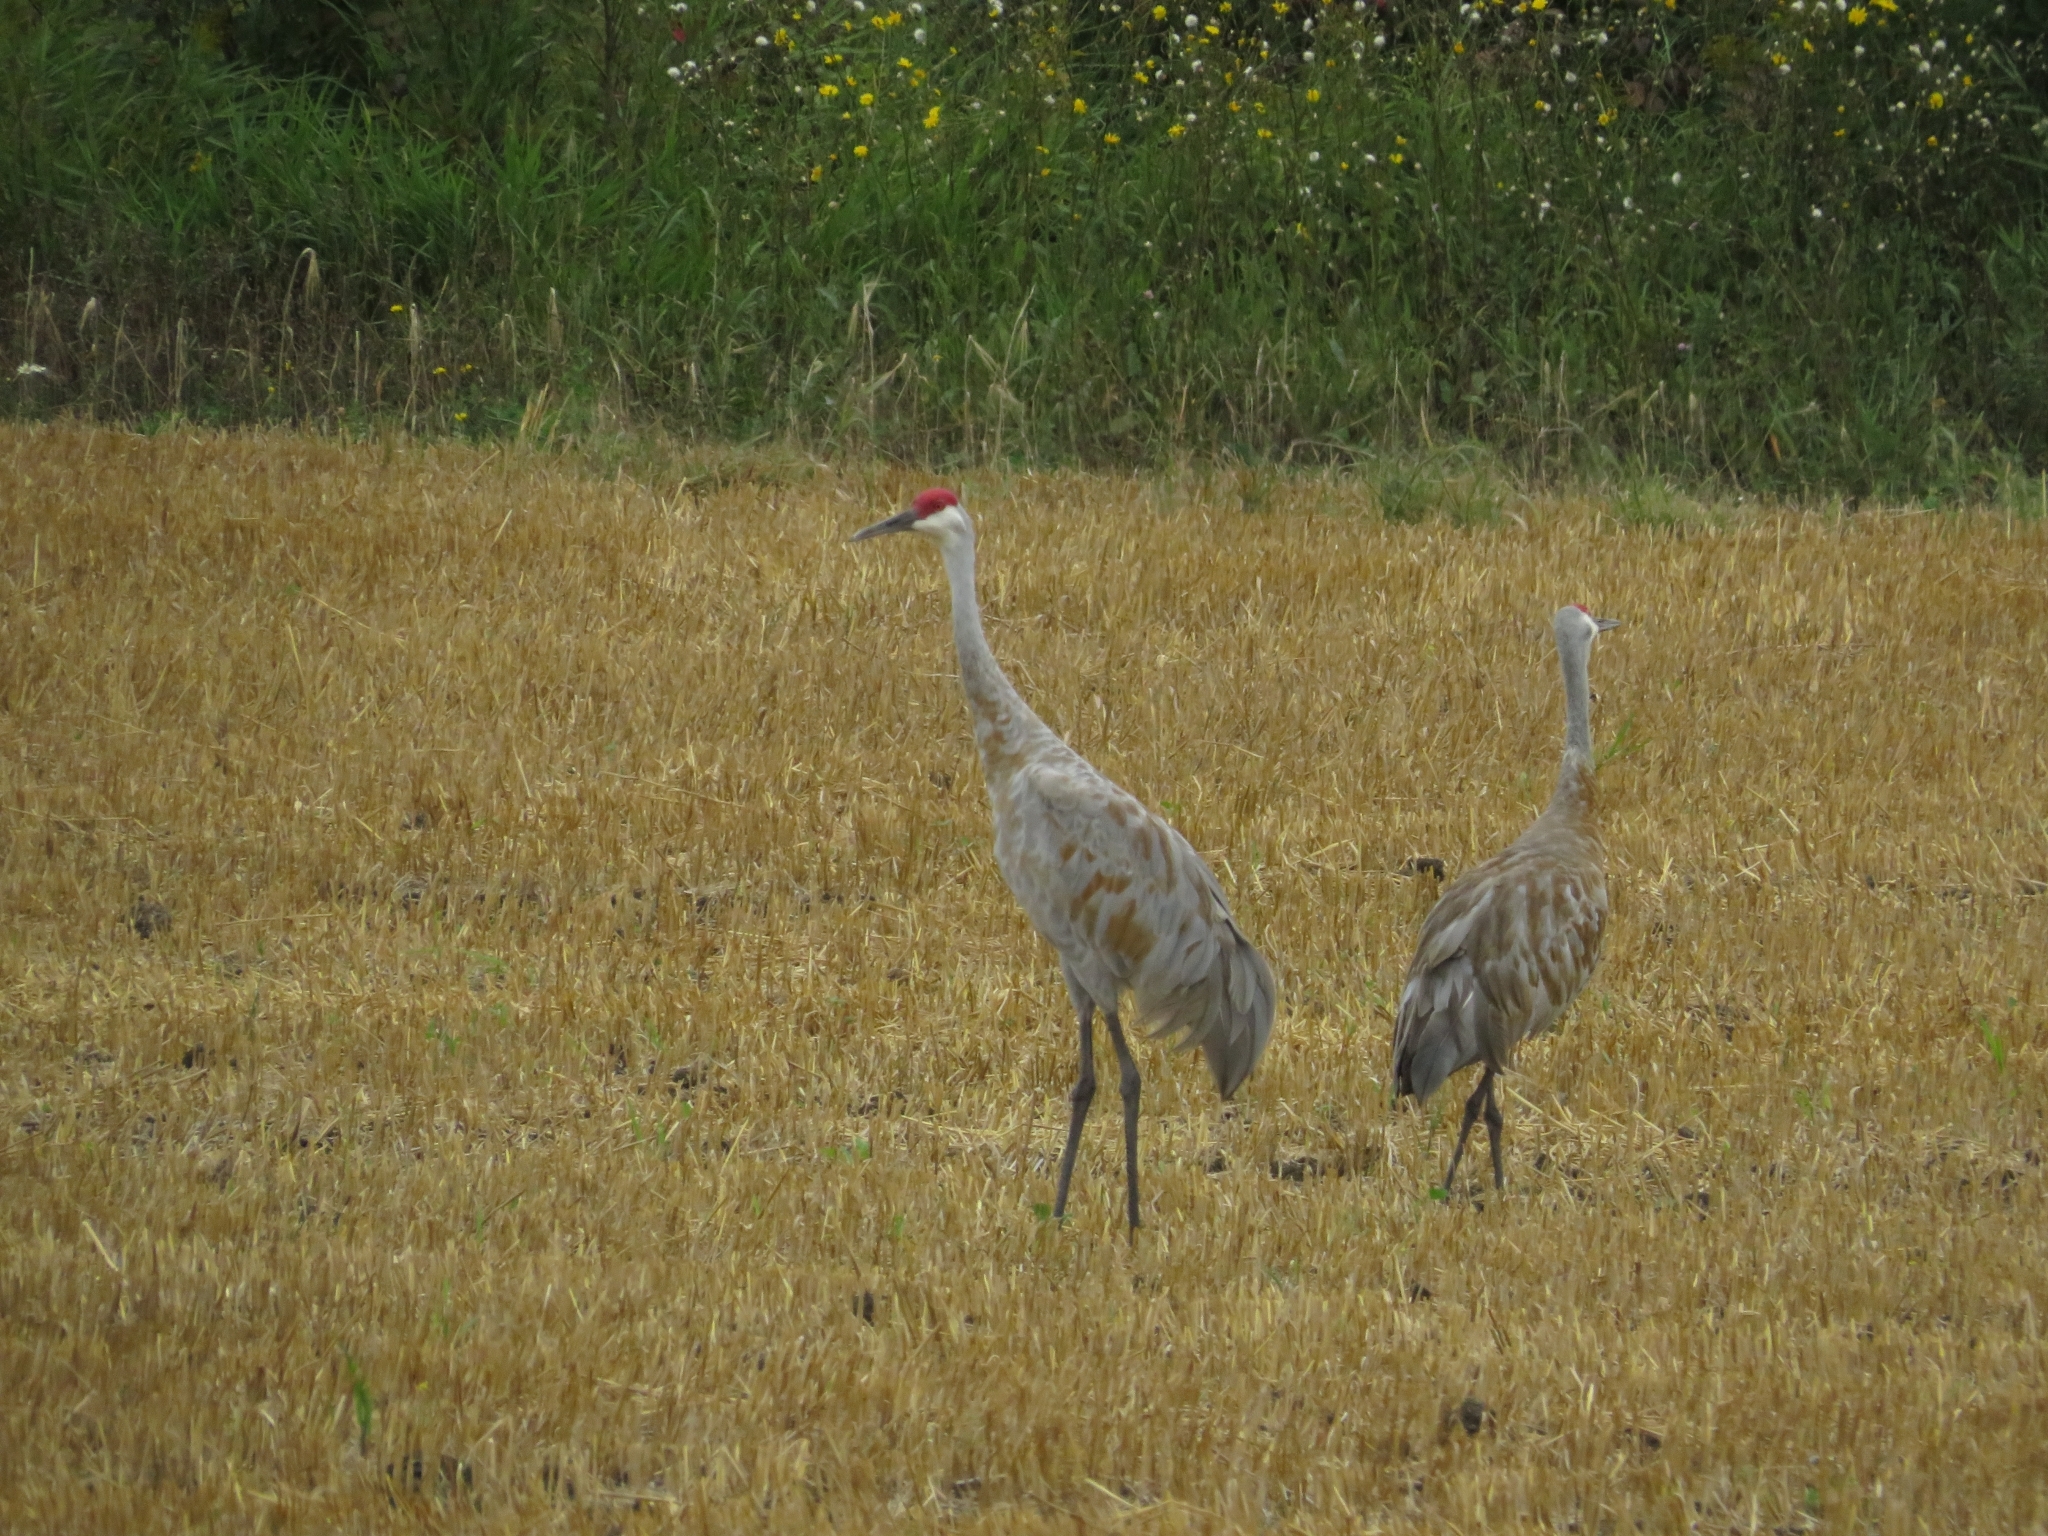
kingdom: Animalia
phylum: Chordata
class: Aves
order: Gruiformes
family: Gruidae
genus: Grus
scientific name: Grus canadensis
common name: Sandhill crane
